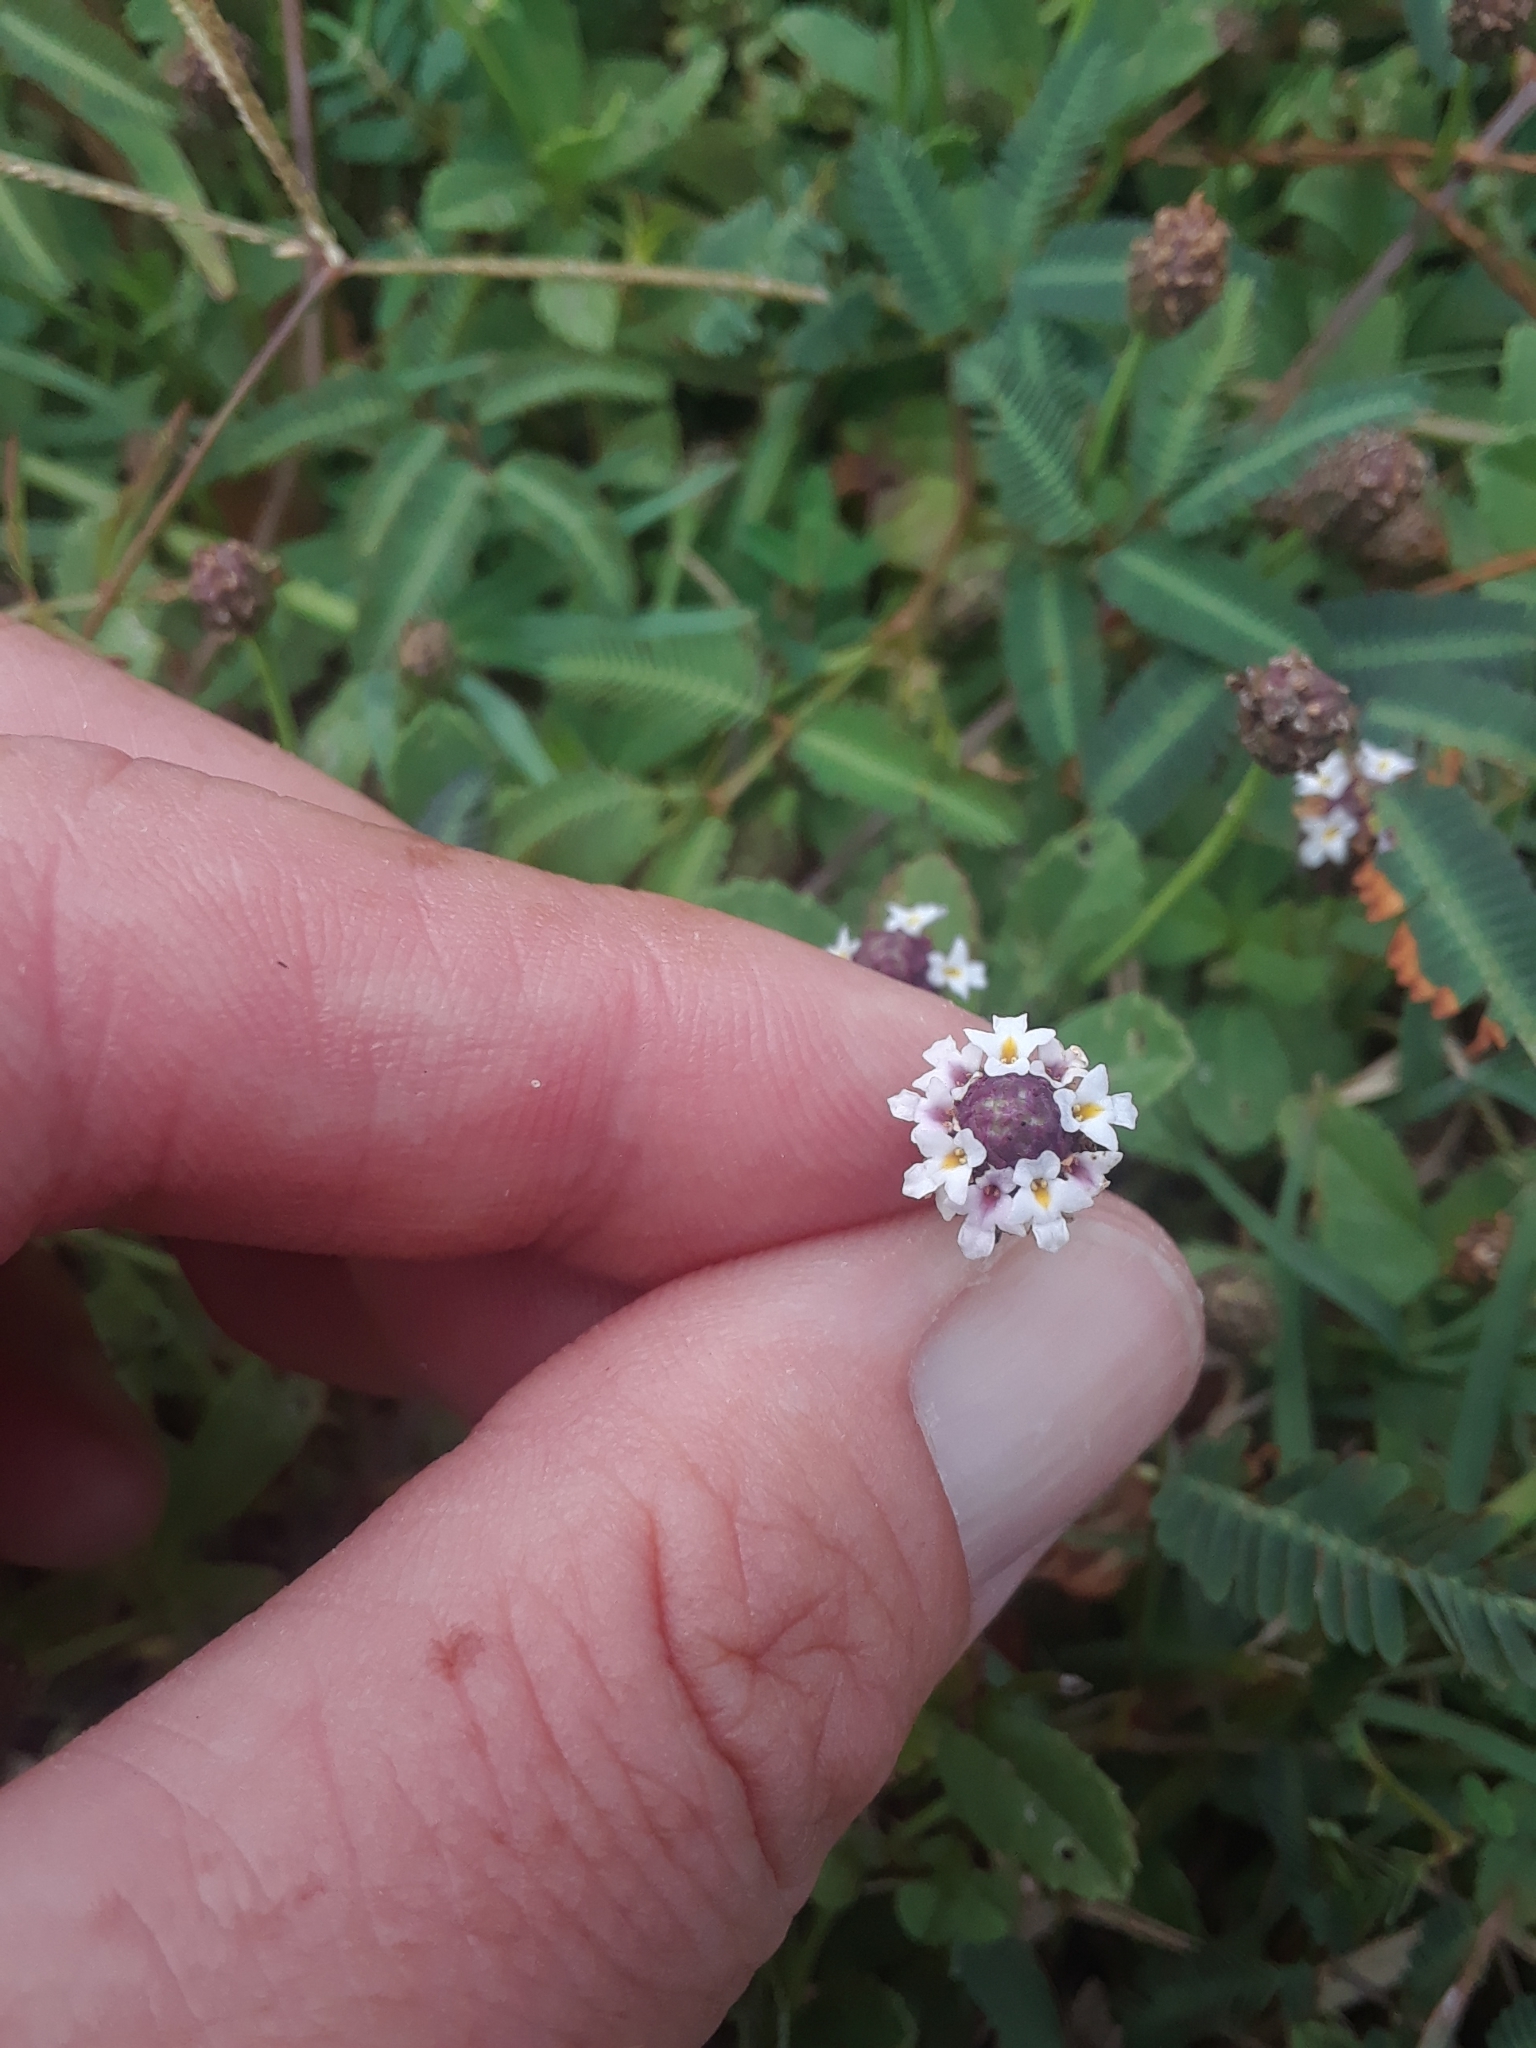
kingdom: Plantae
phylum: Tracheophyta
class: Magnoliopsida
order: Lamiales
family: Verbenaceae
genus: Phyla
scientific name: Phyla nodiflora
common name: Frogfruit
